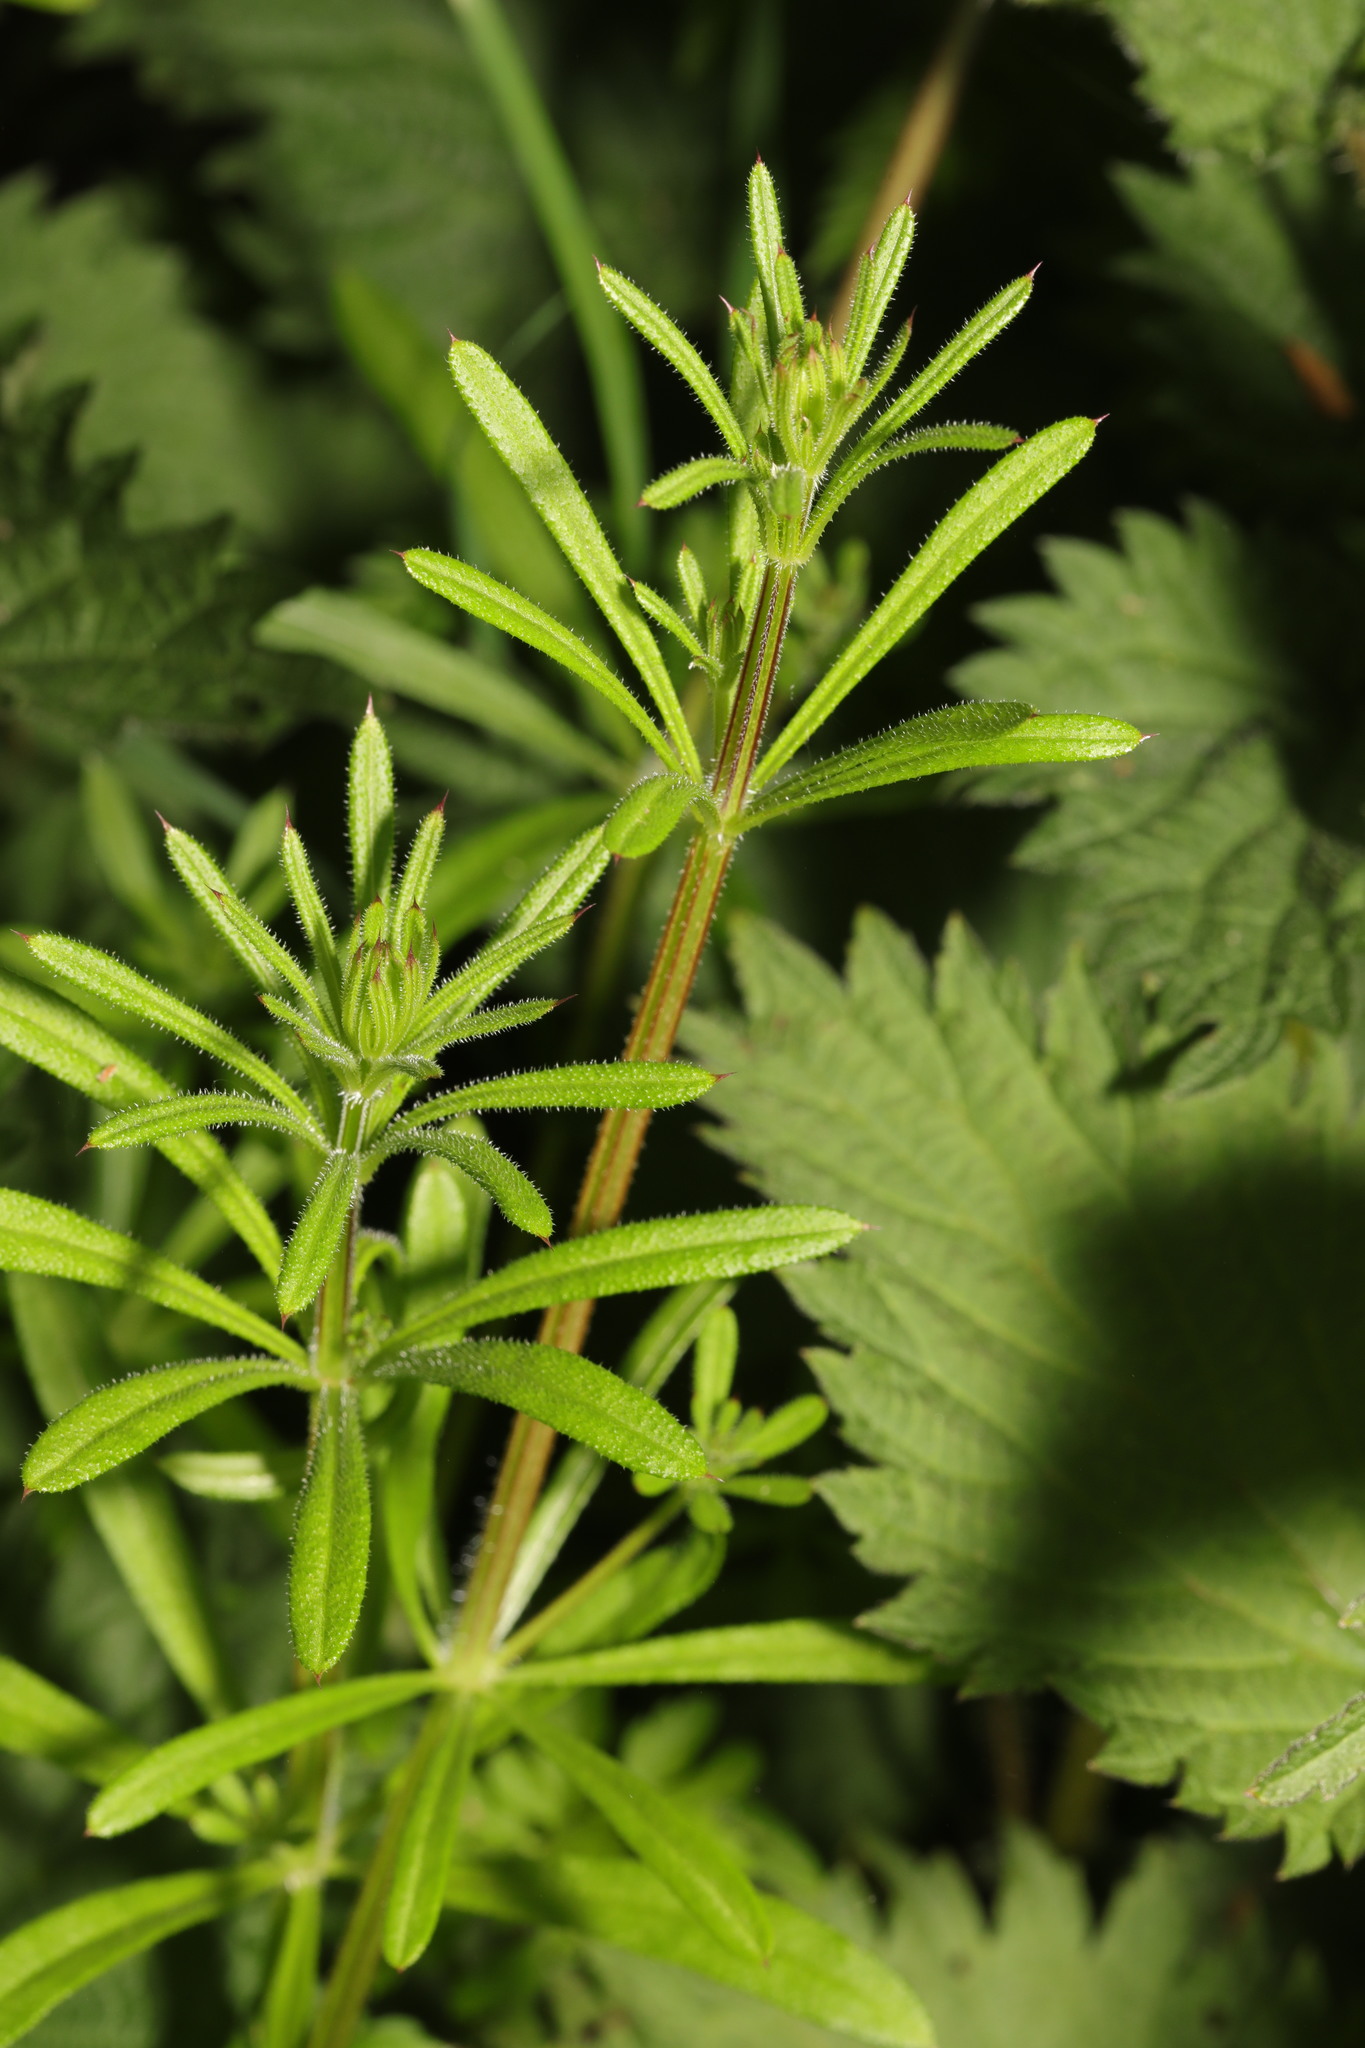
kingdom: Plantae
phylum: Tracheophyta
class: Magnoliopsida
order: Gentianales
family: Rubiaceae
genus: Galium
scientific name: Galium aparine
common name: Cleavers
